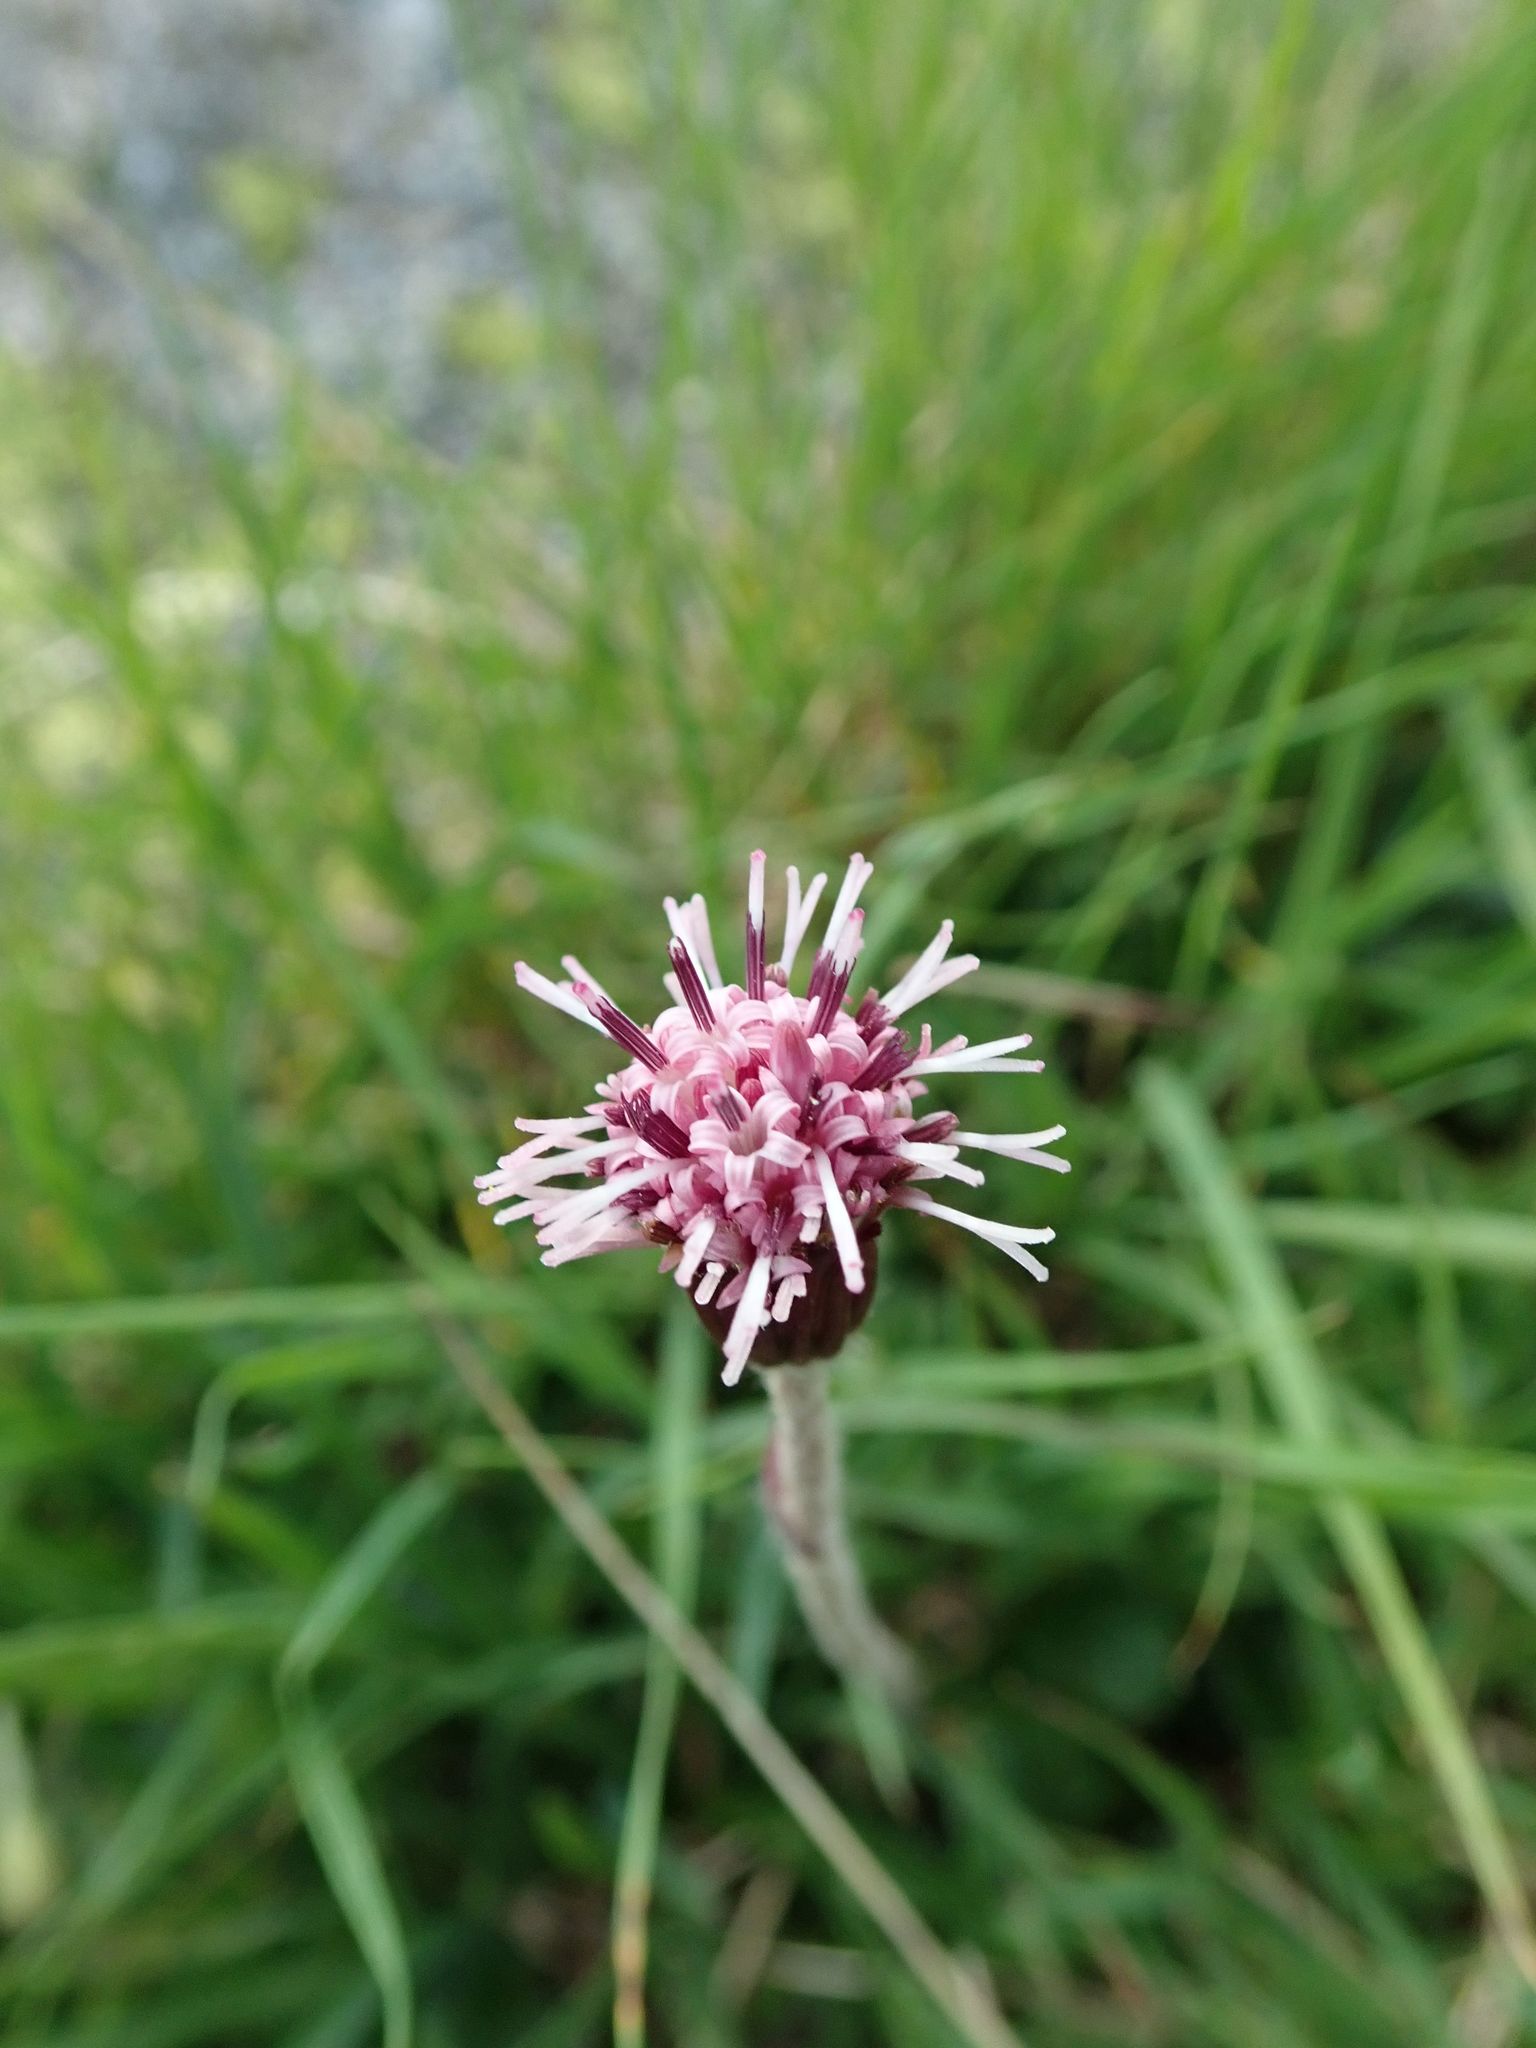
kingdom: Plantae
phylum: Tracheophyta
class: Magnoliopsida
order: Asterales
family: Asteraceae
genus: Homogyne
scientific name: Homogyne alpina
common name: Purple colt's-foot
